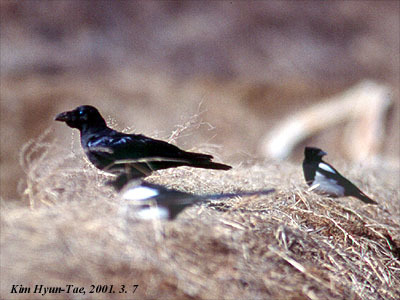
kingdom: Animalia
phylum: Chordata
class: Aves
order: Passeriformes
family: Corvidae
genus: Corvus
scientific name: Corvus macrorhynchos
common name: Large-billed crow
